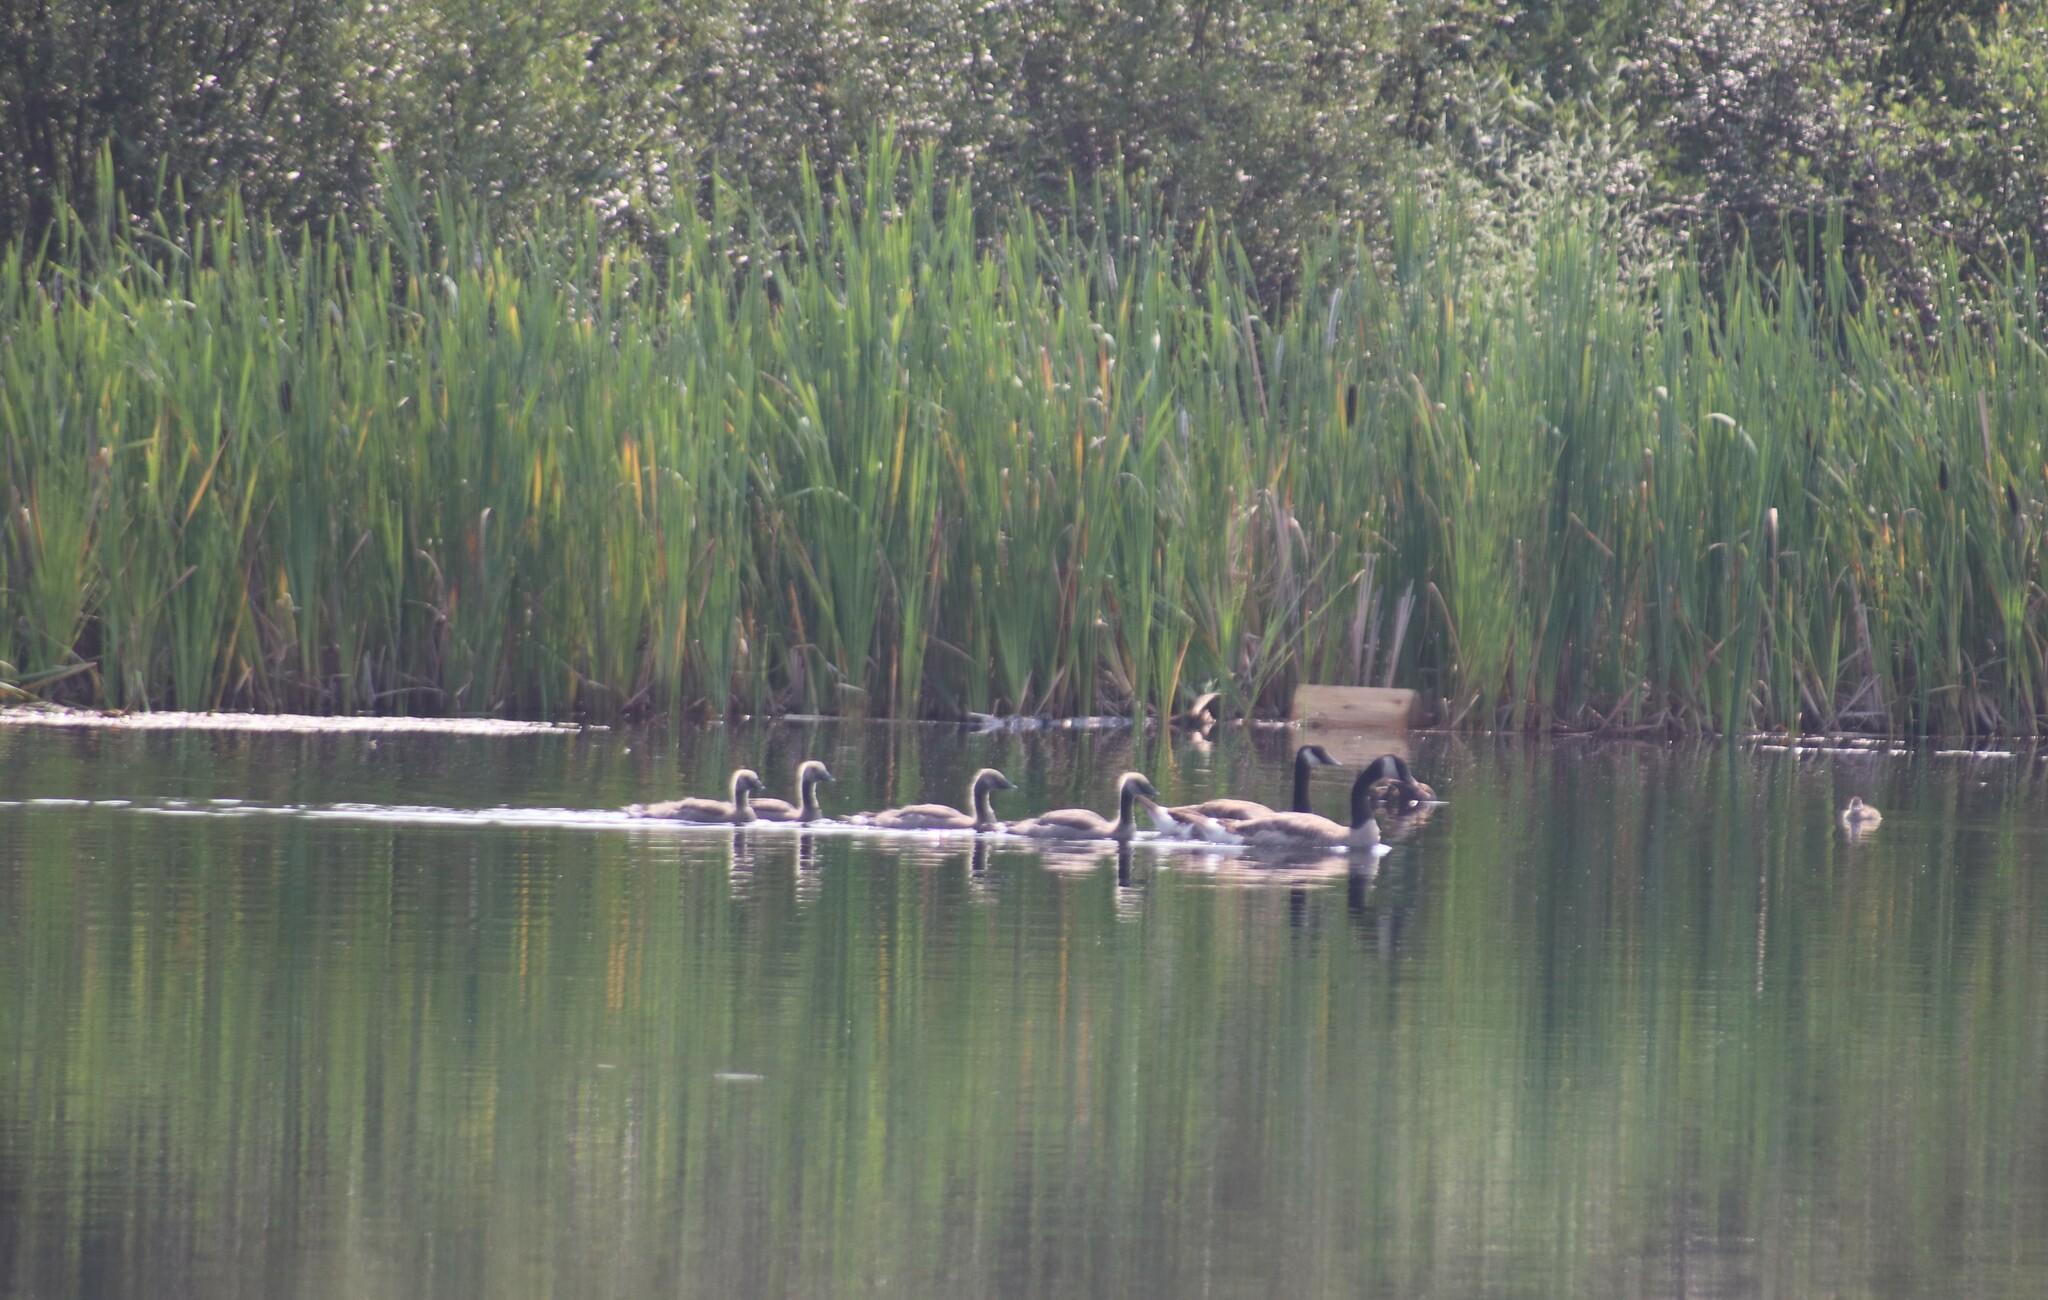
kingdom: Animalia
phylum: Chordata
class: Aves
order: Anseriformes
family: Anatidae
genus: Branta
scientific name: Branta canadensis
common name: Canada goose
